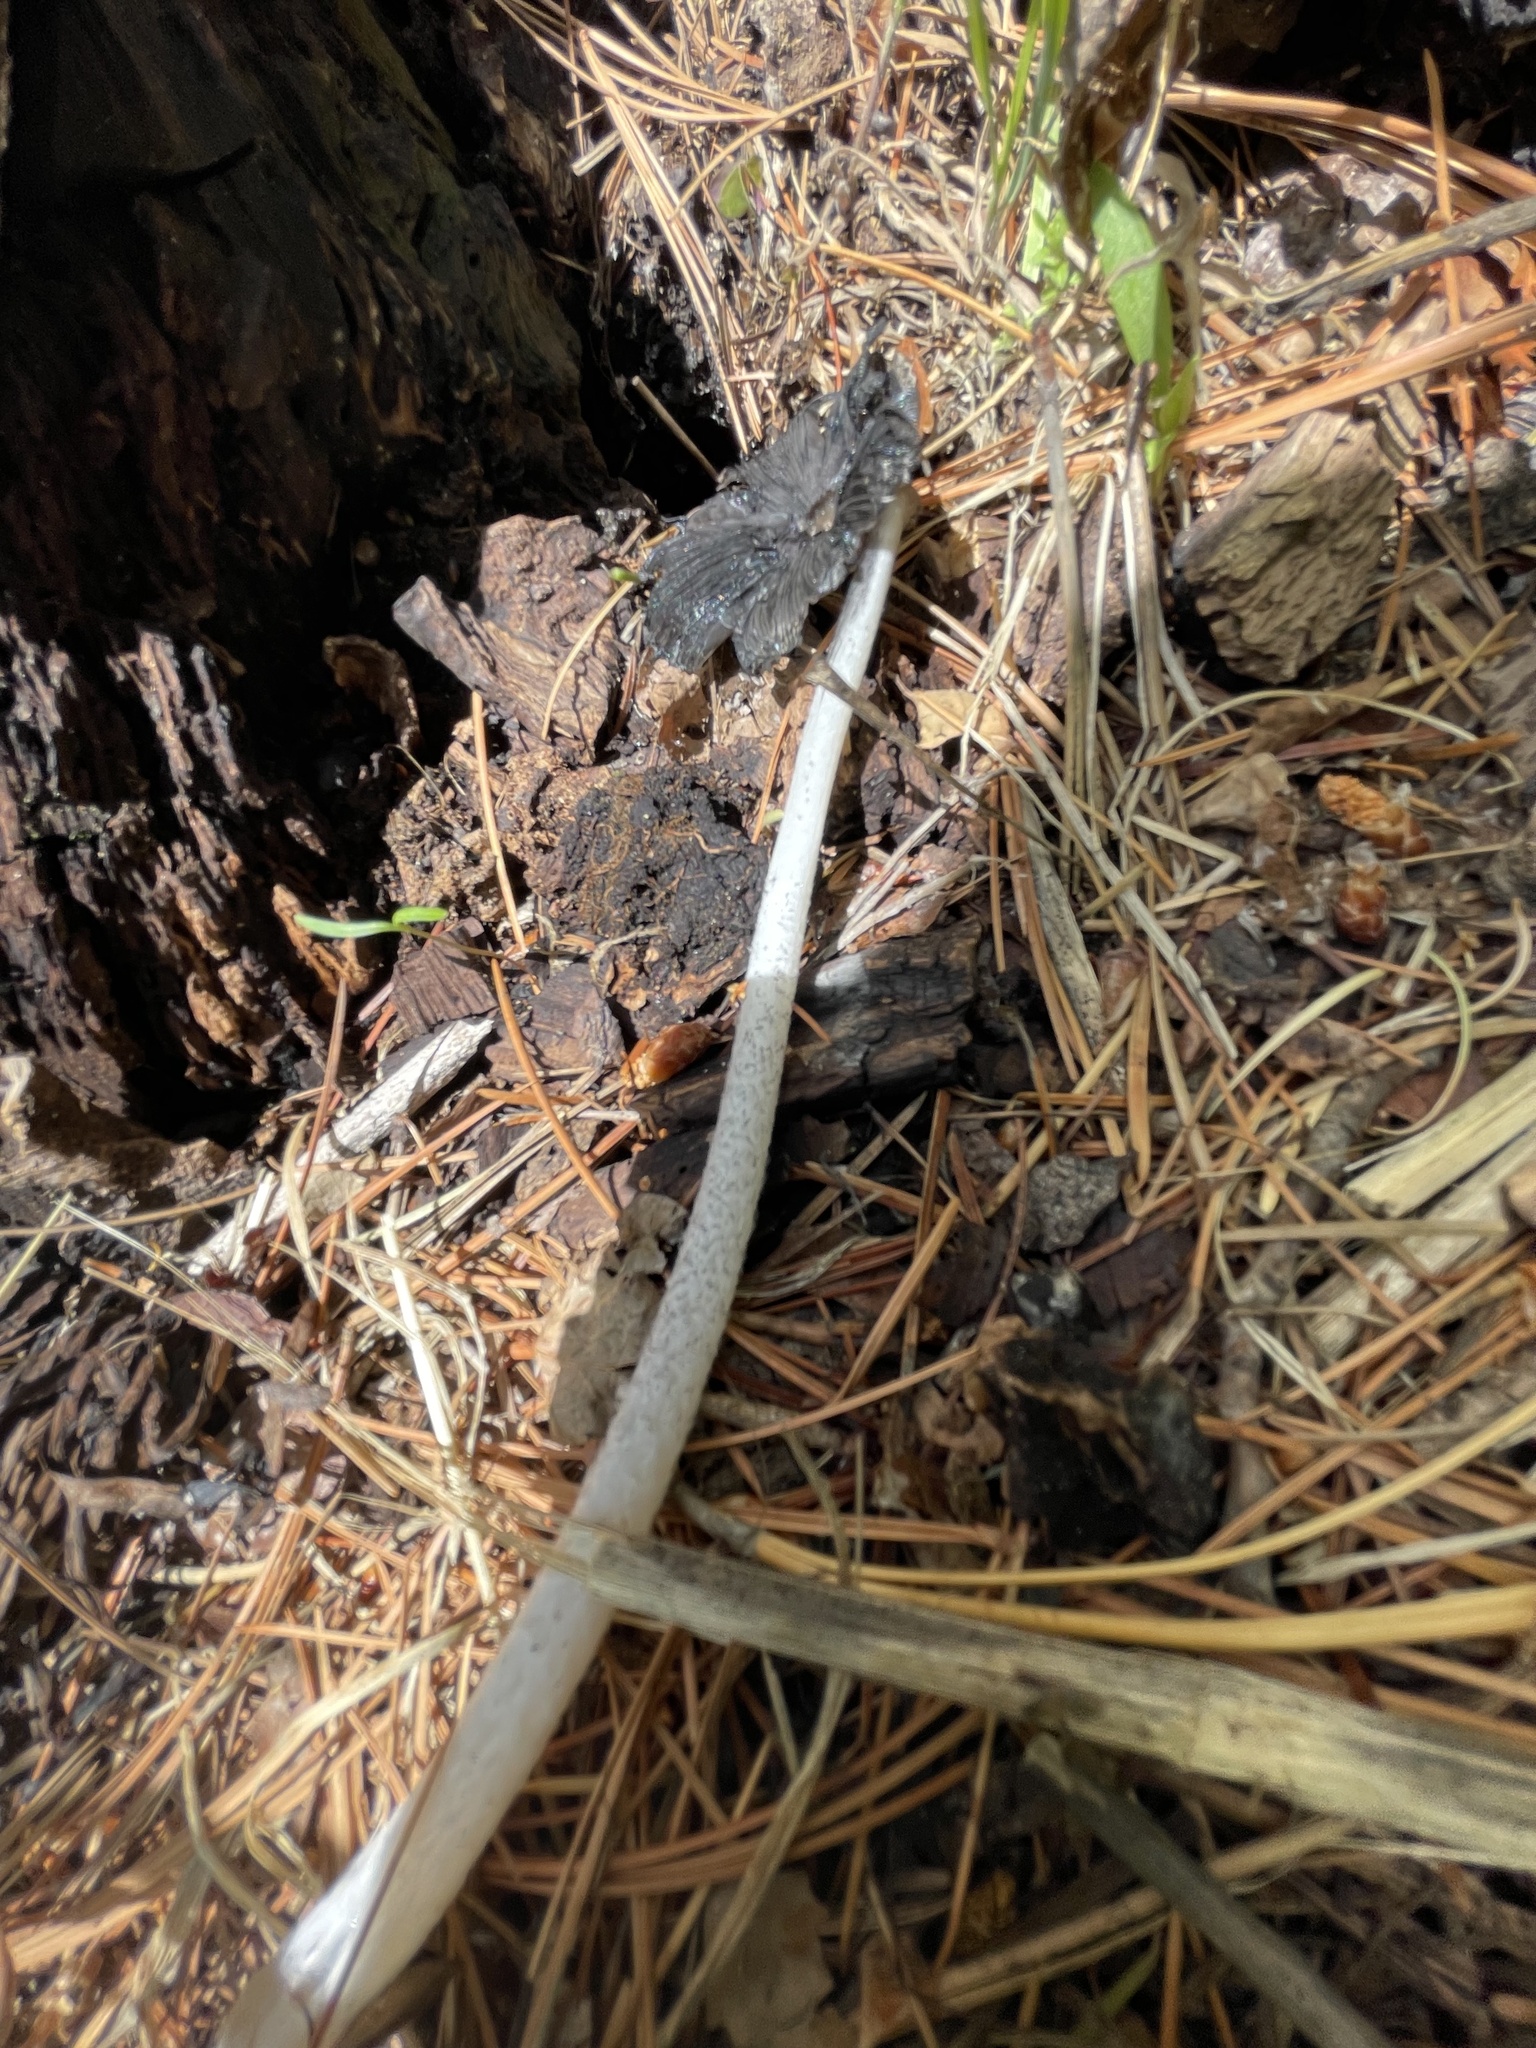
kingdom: Fungi
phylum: Basidiomycota
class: Agaricomycetes
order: Agaricales
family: Psathyrellaceae
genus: Coprinopsis
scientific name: Coprinopsis jonesii
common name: Bonfire inkcap
